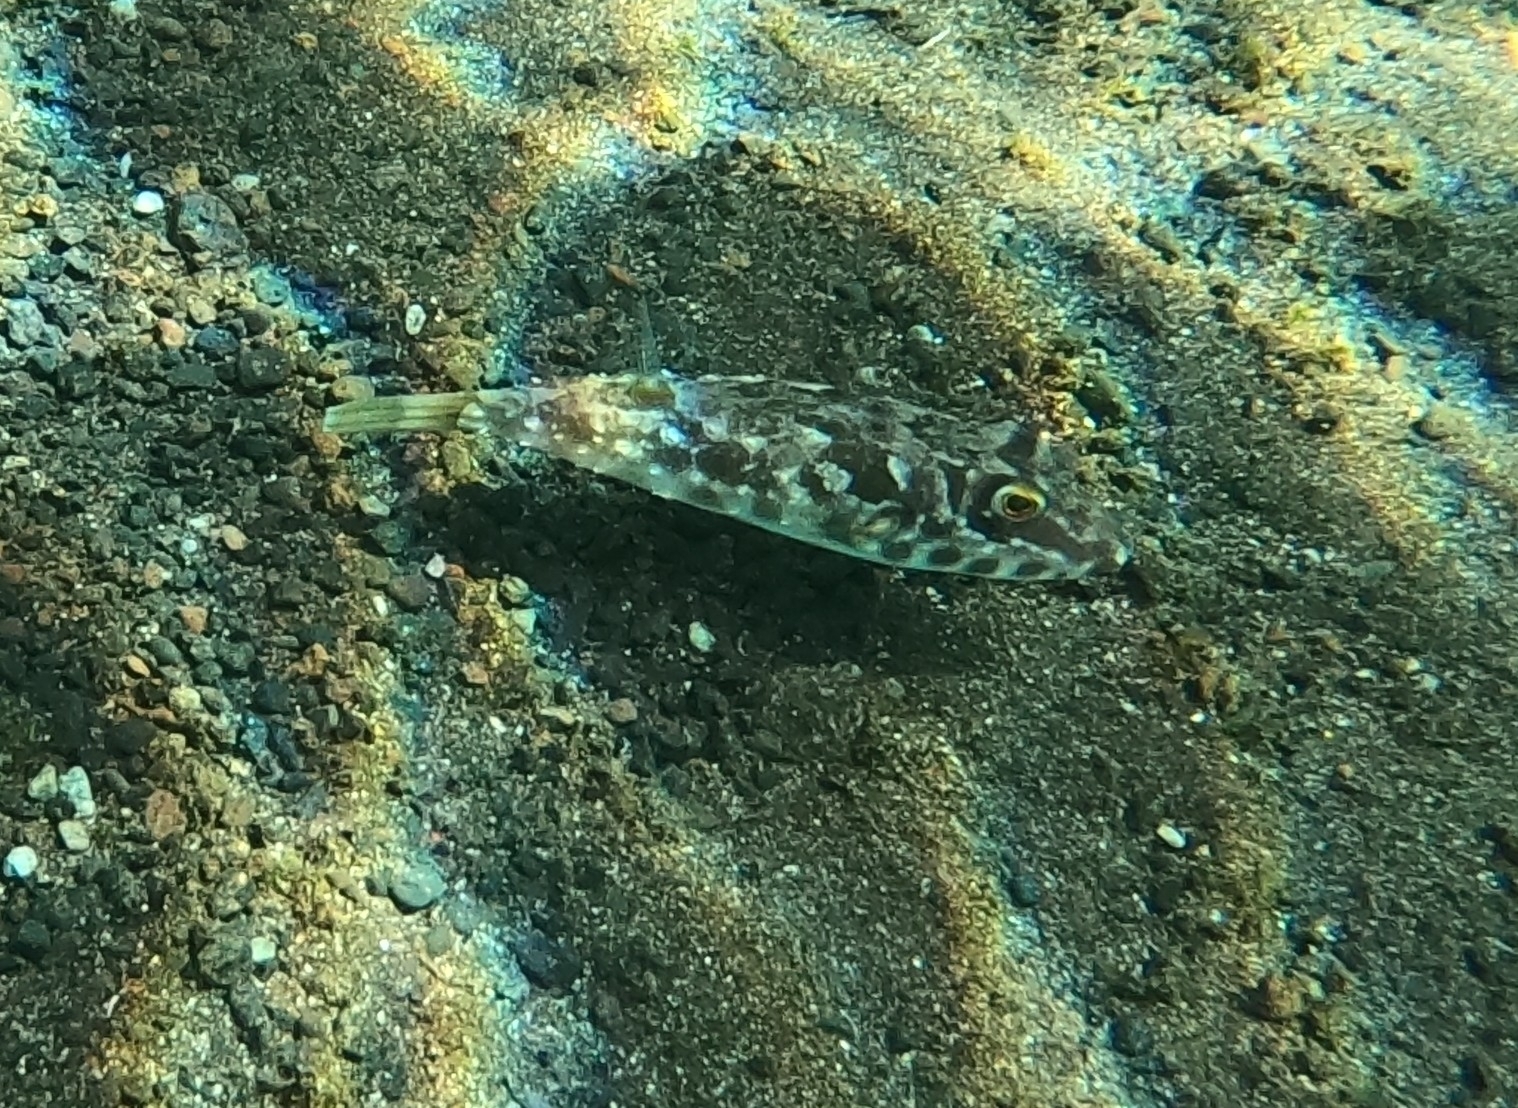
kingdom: Animalia
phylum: Chordata
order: Tetraodontiformes
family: Tetraodontidae
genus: Sphoeroides
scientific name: Sphoeroides marmoratus
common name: Guinean puffer
